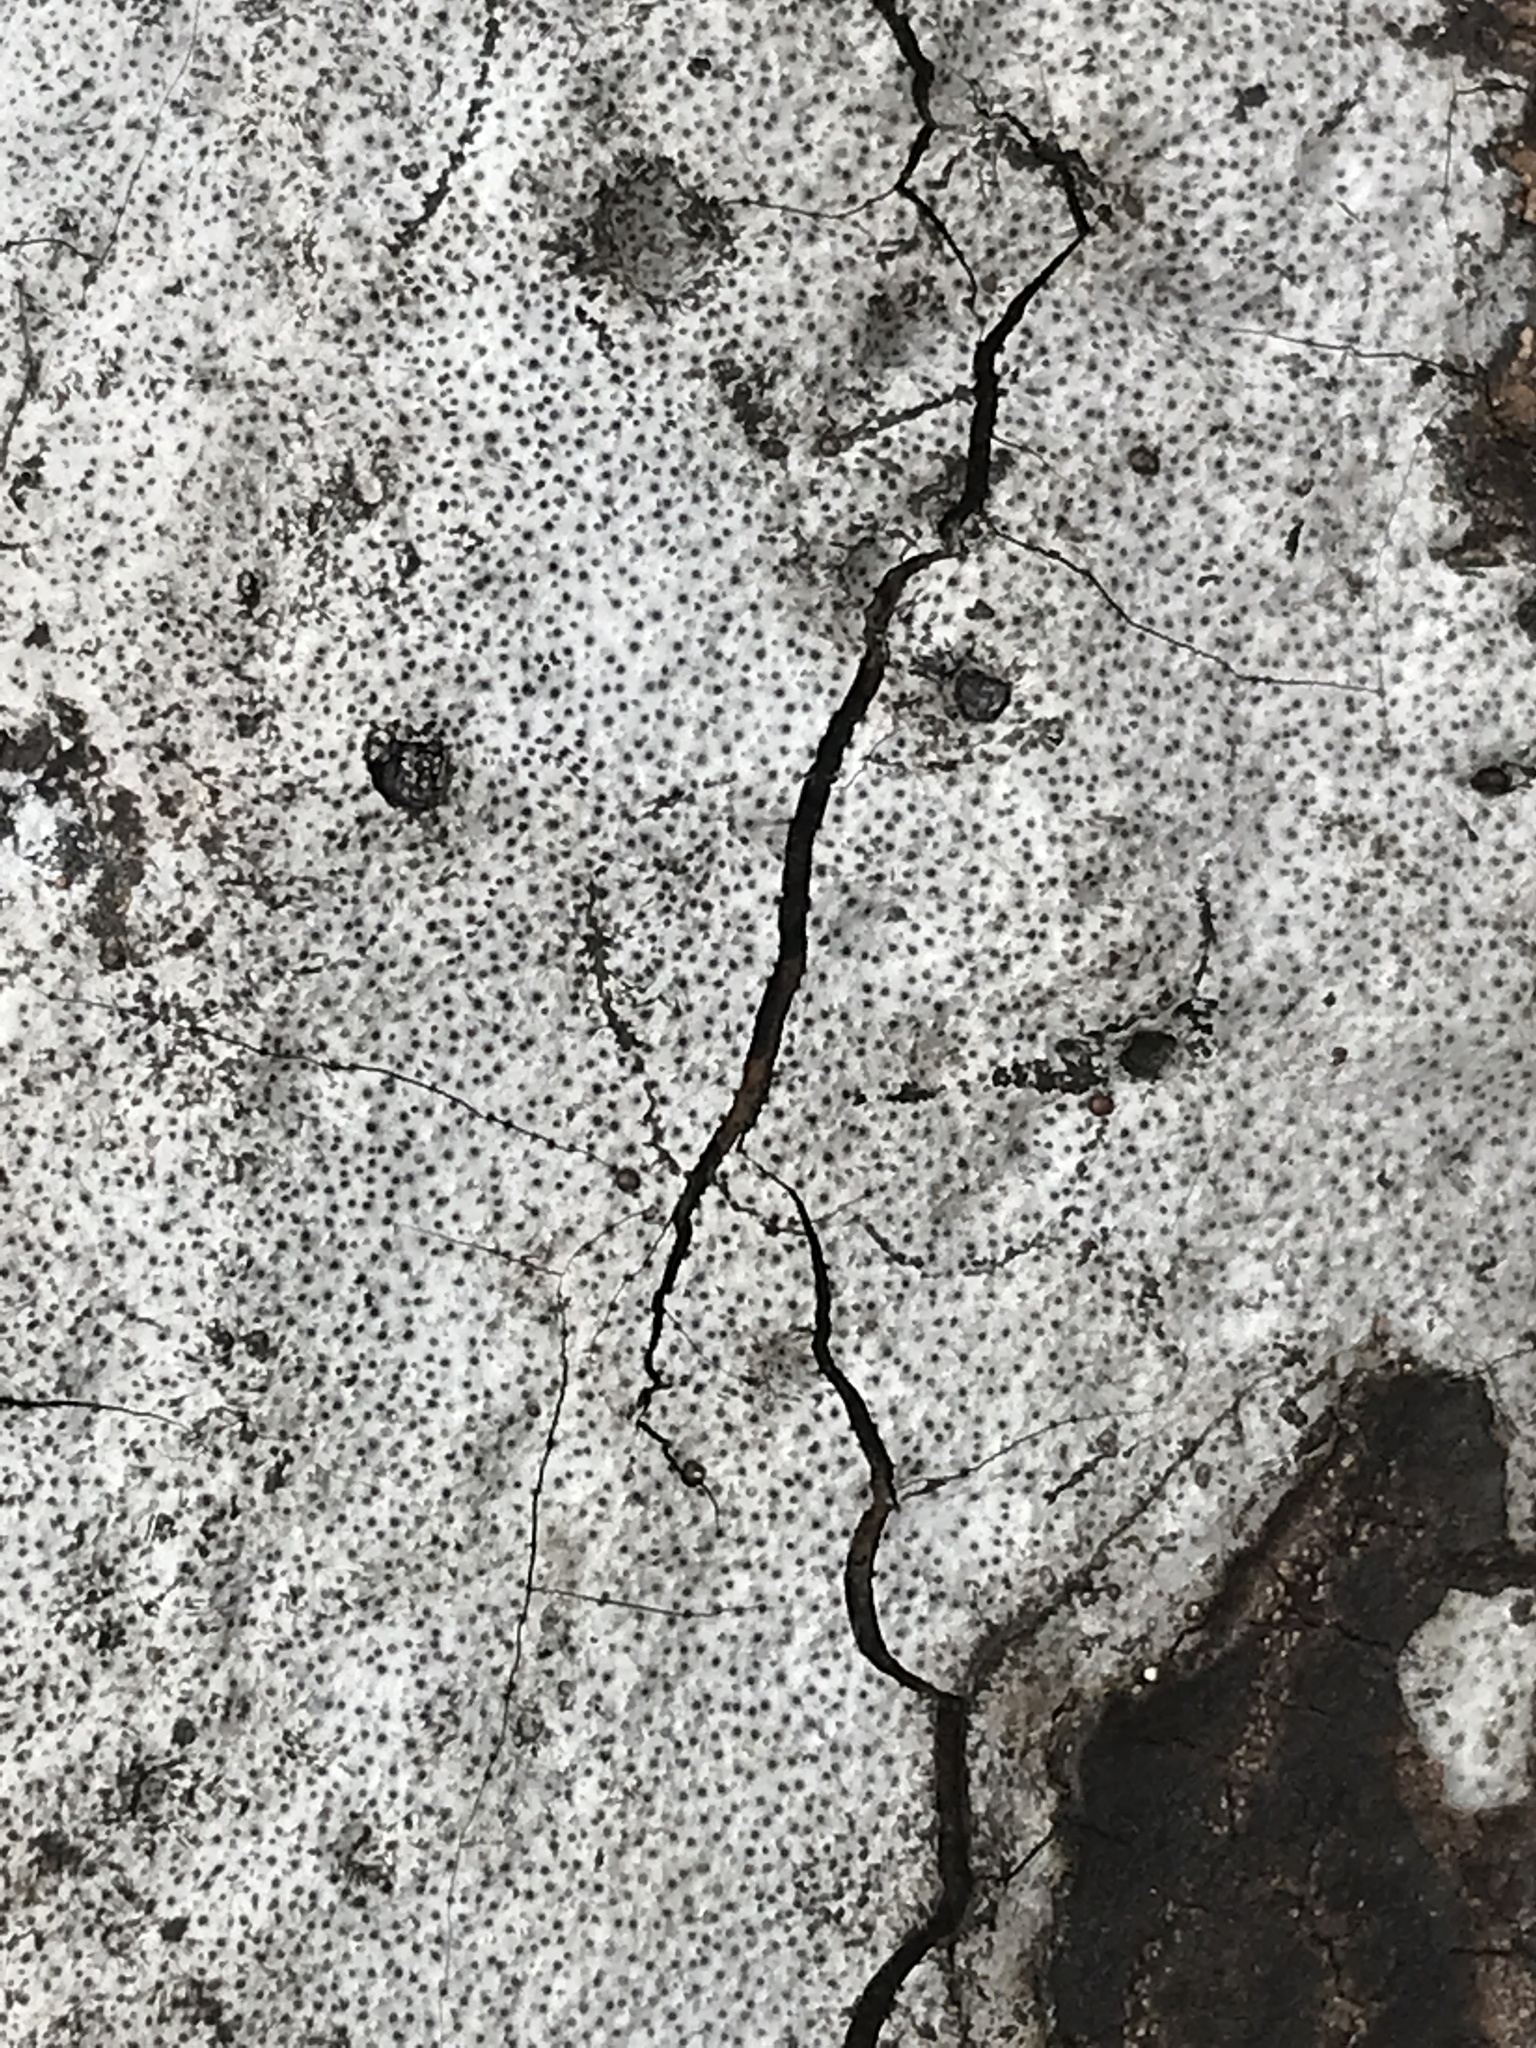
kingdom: Fungi
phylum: Ascomycota
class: Sordariomycetes
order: Xylariales
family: Graphostromataceae
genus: Biscogniauxia
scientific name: Biscogniauxia atropunctata
